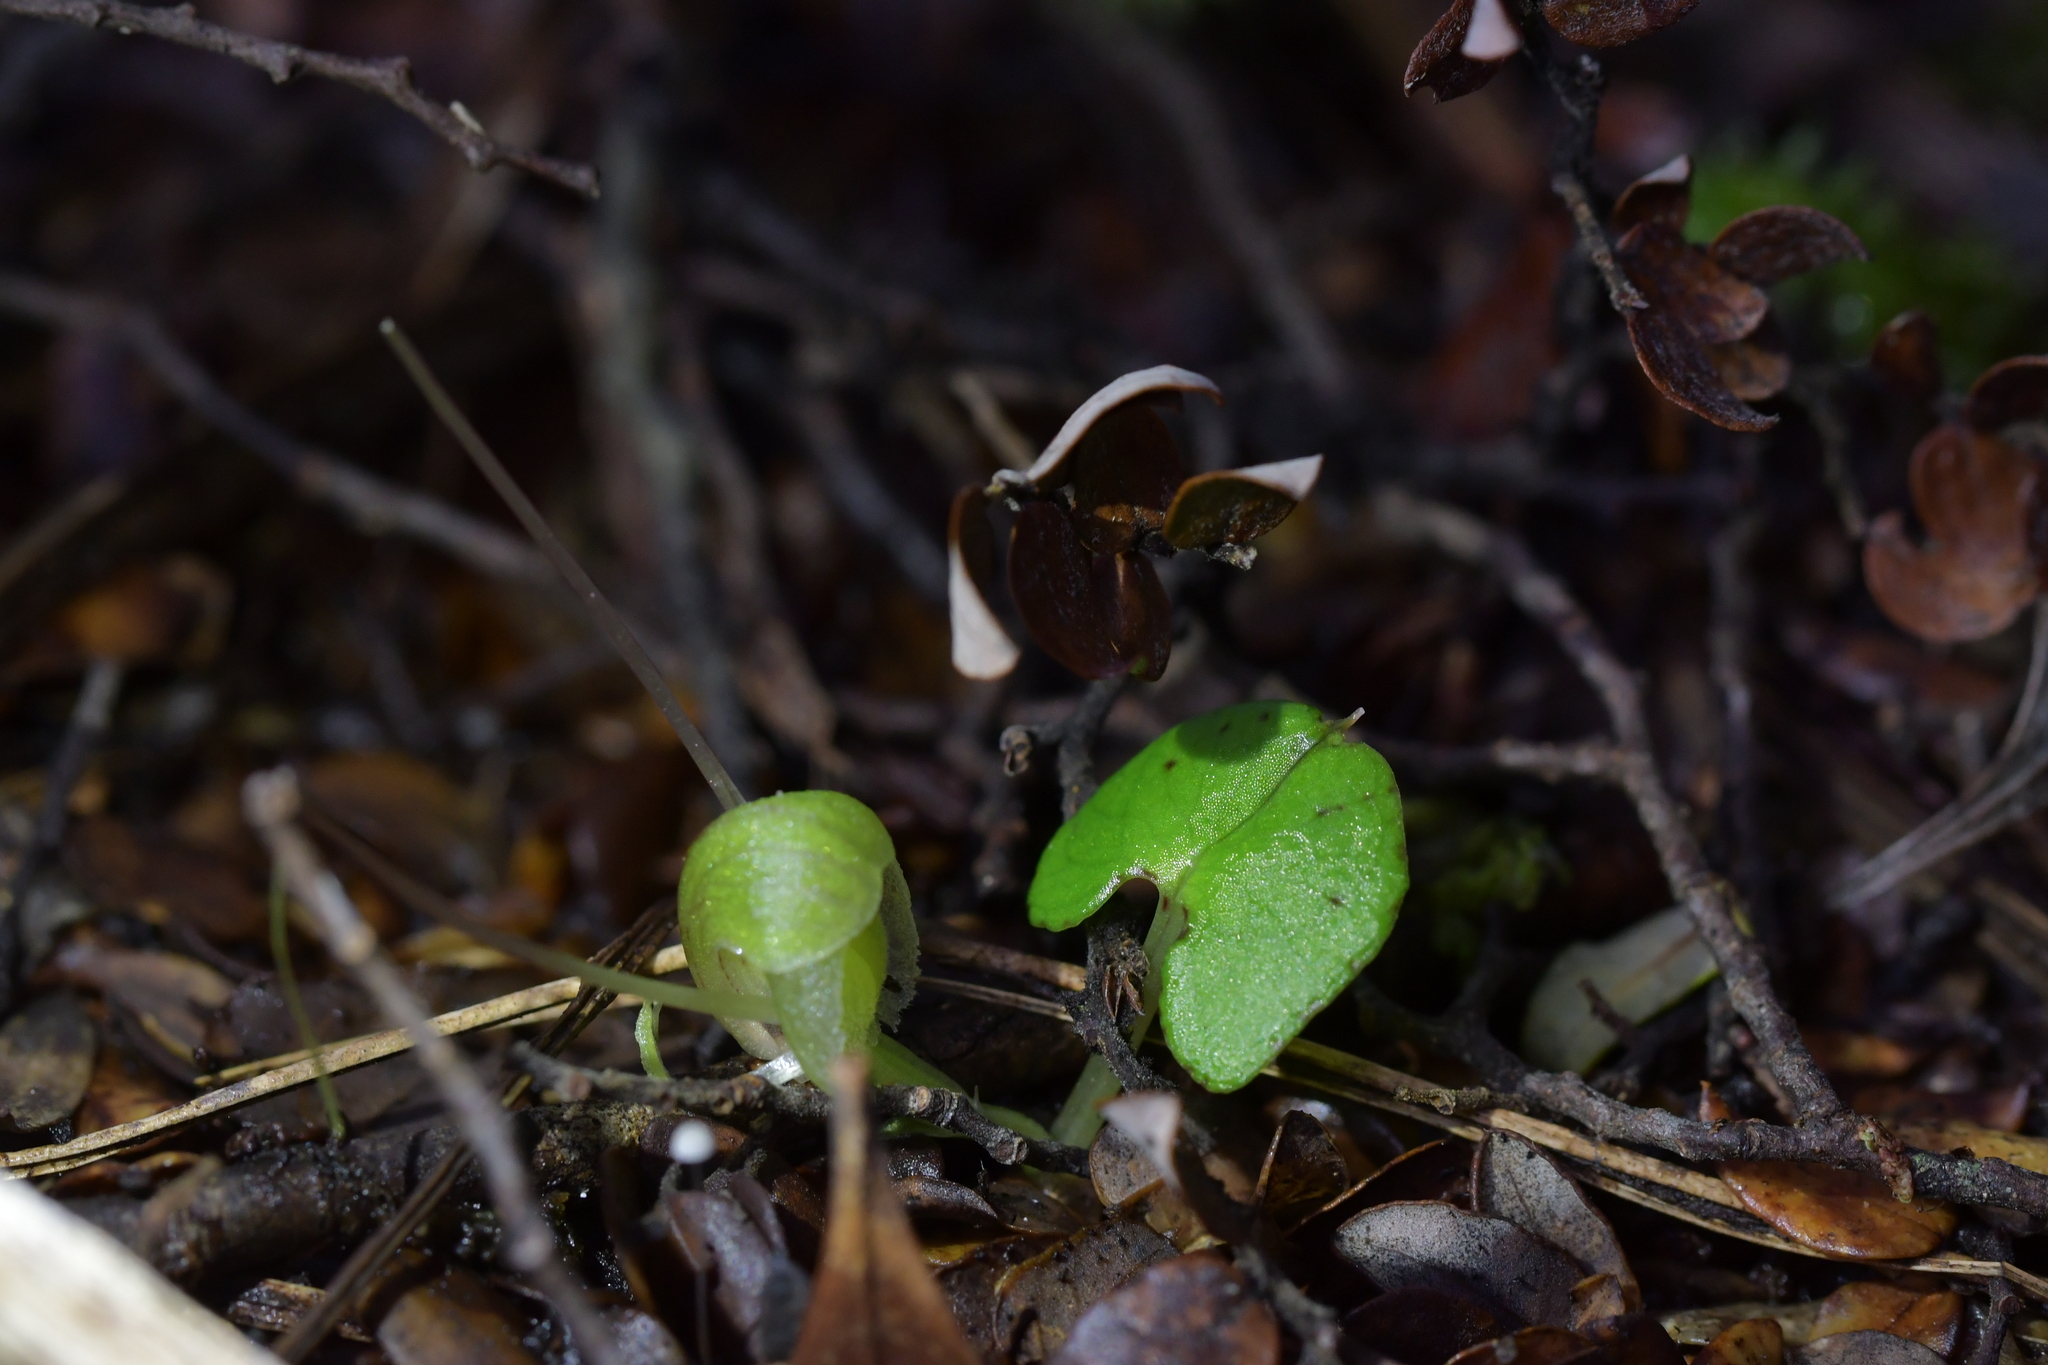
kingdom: Plantae
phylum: Tracheophyta
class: Liliopsida
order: Asparagales
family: Orchidaceae
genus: Corybas
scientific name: Corybas walliae
